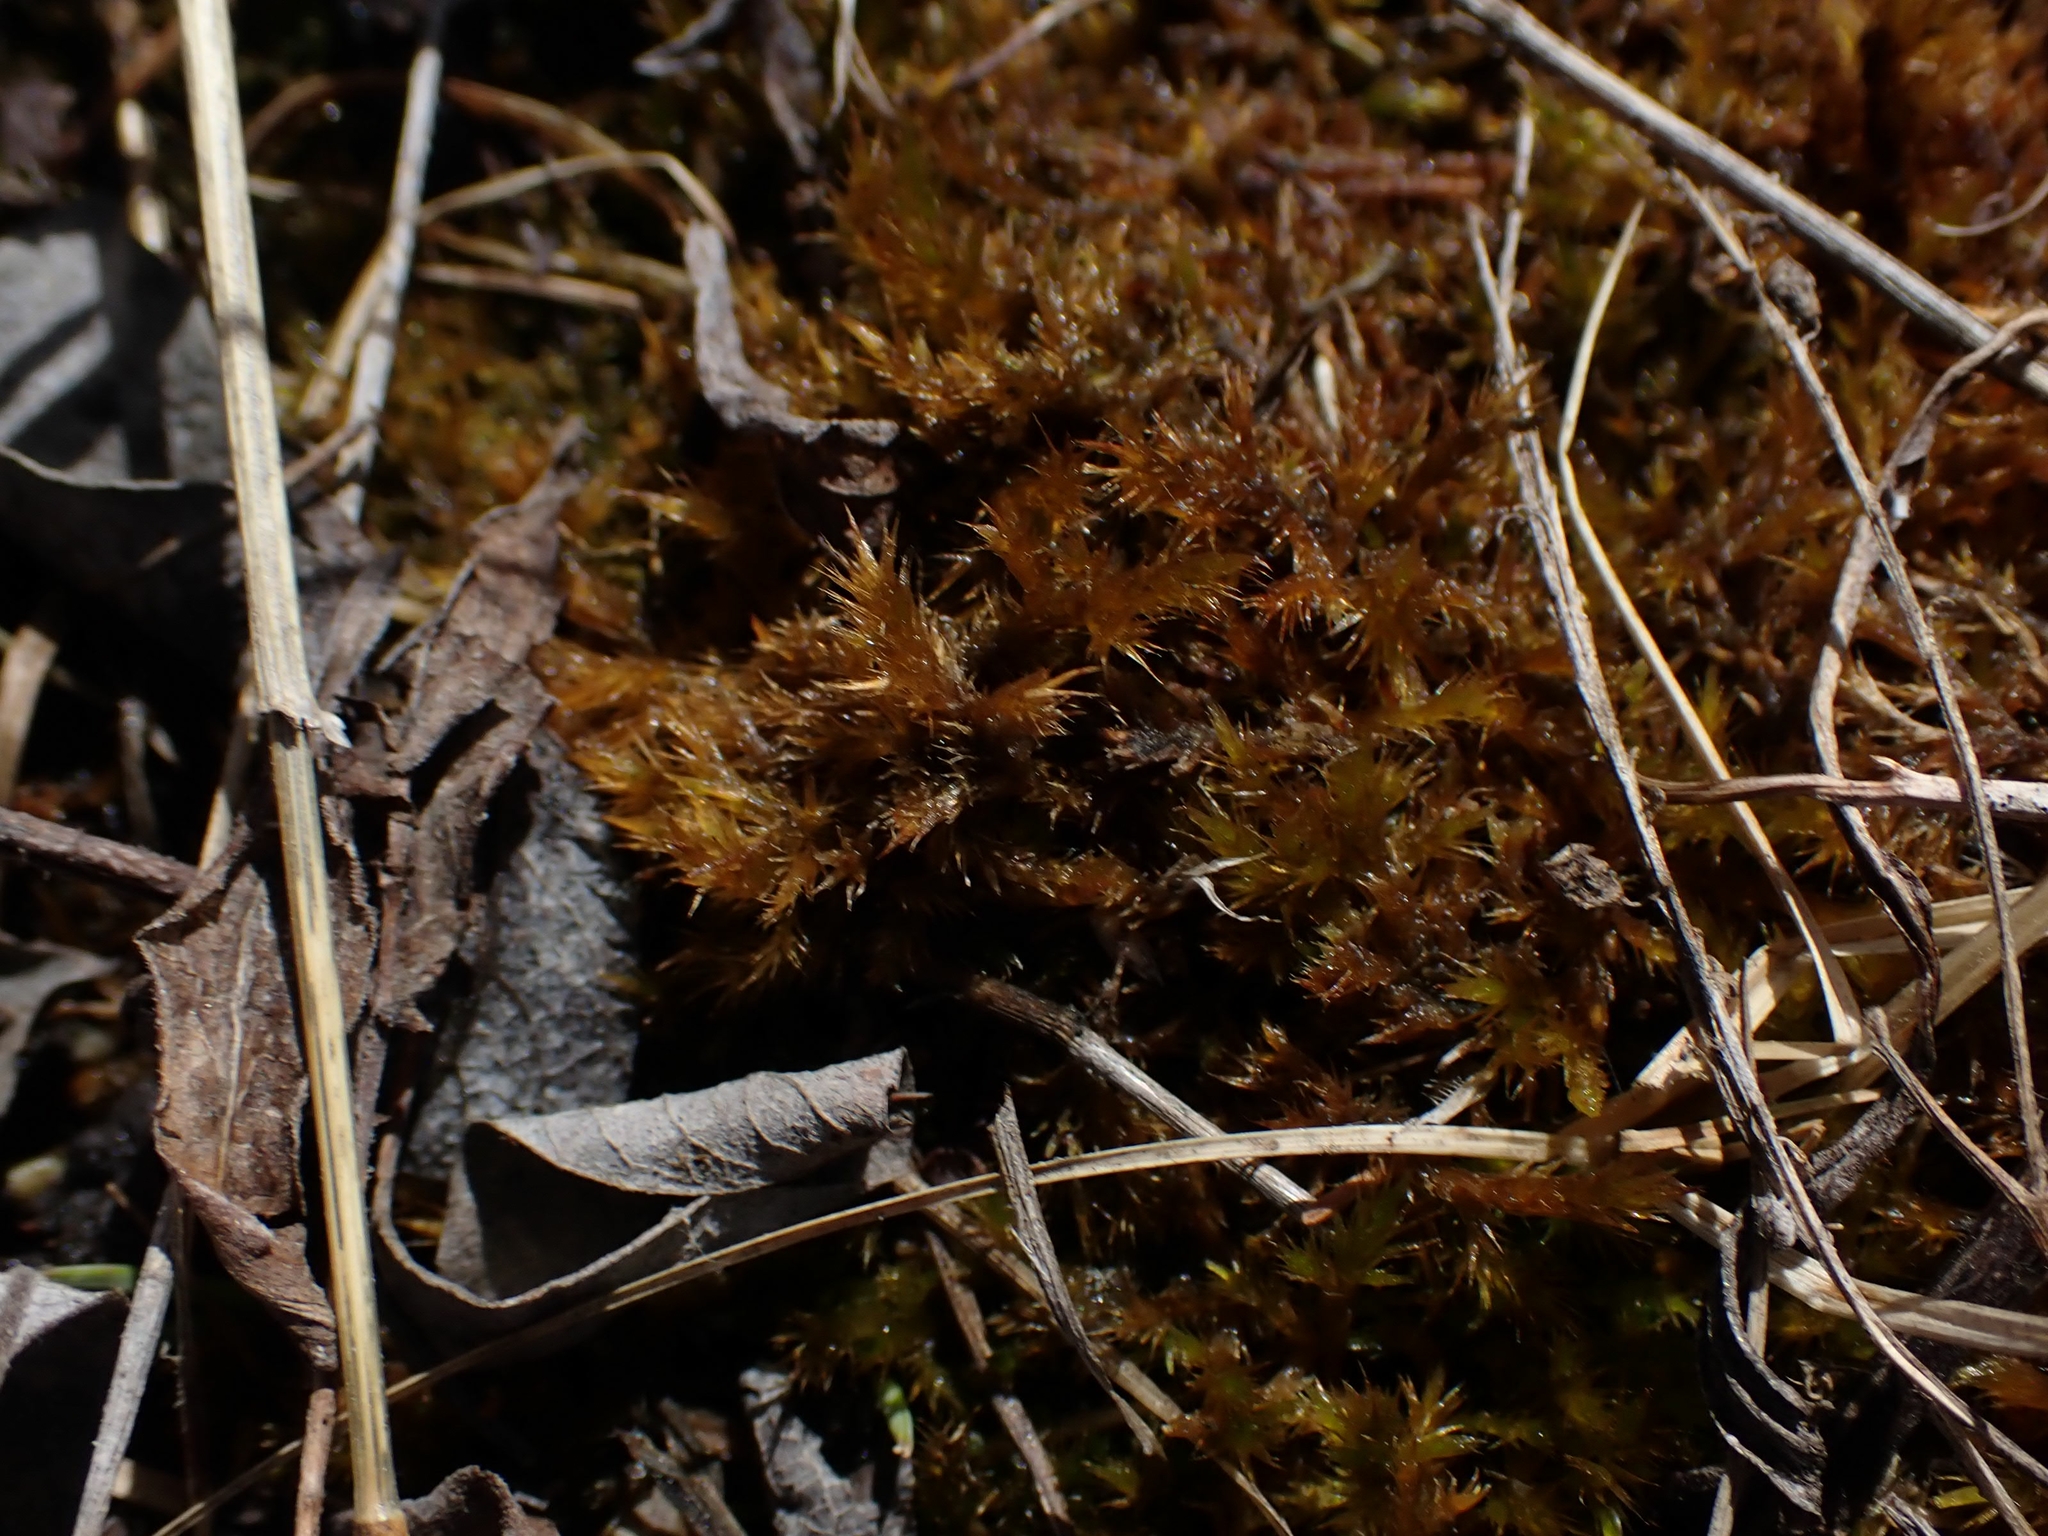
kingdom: Plantae
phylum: Bryophyta
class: Bryopsida
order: Hypnales
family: Amblystegiaceae
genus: Tomentypnum
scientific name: Tomentypnum nitens
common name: Golden fuzzy fen moss
